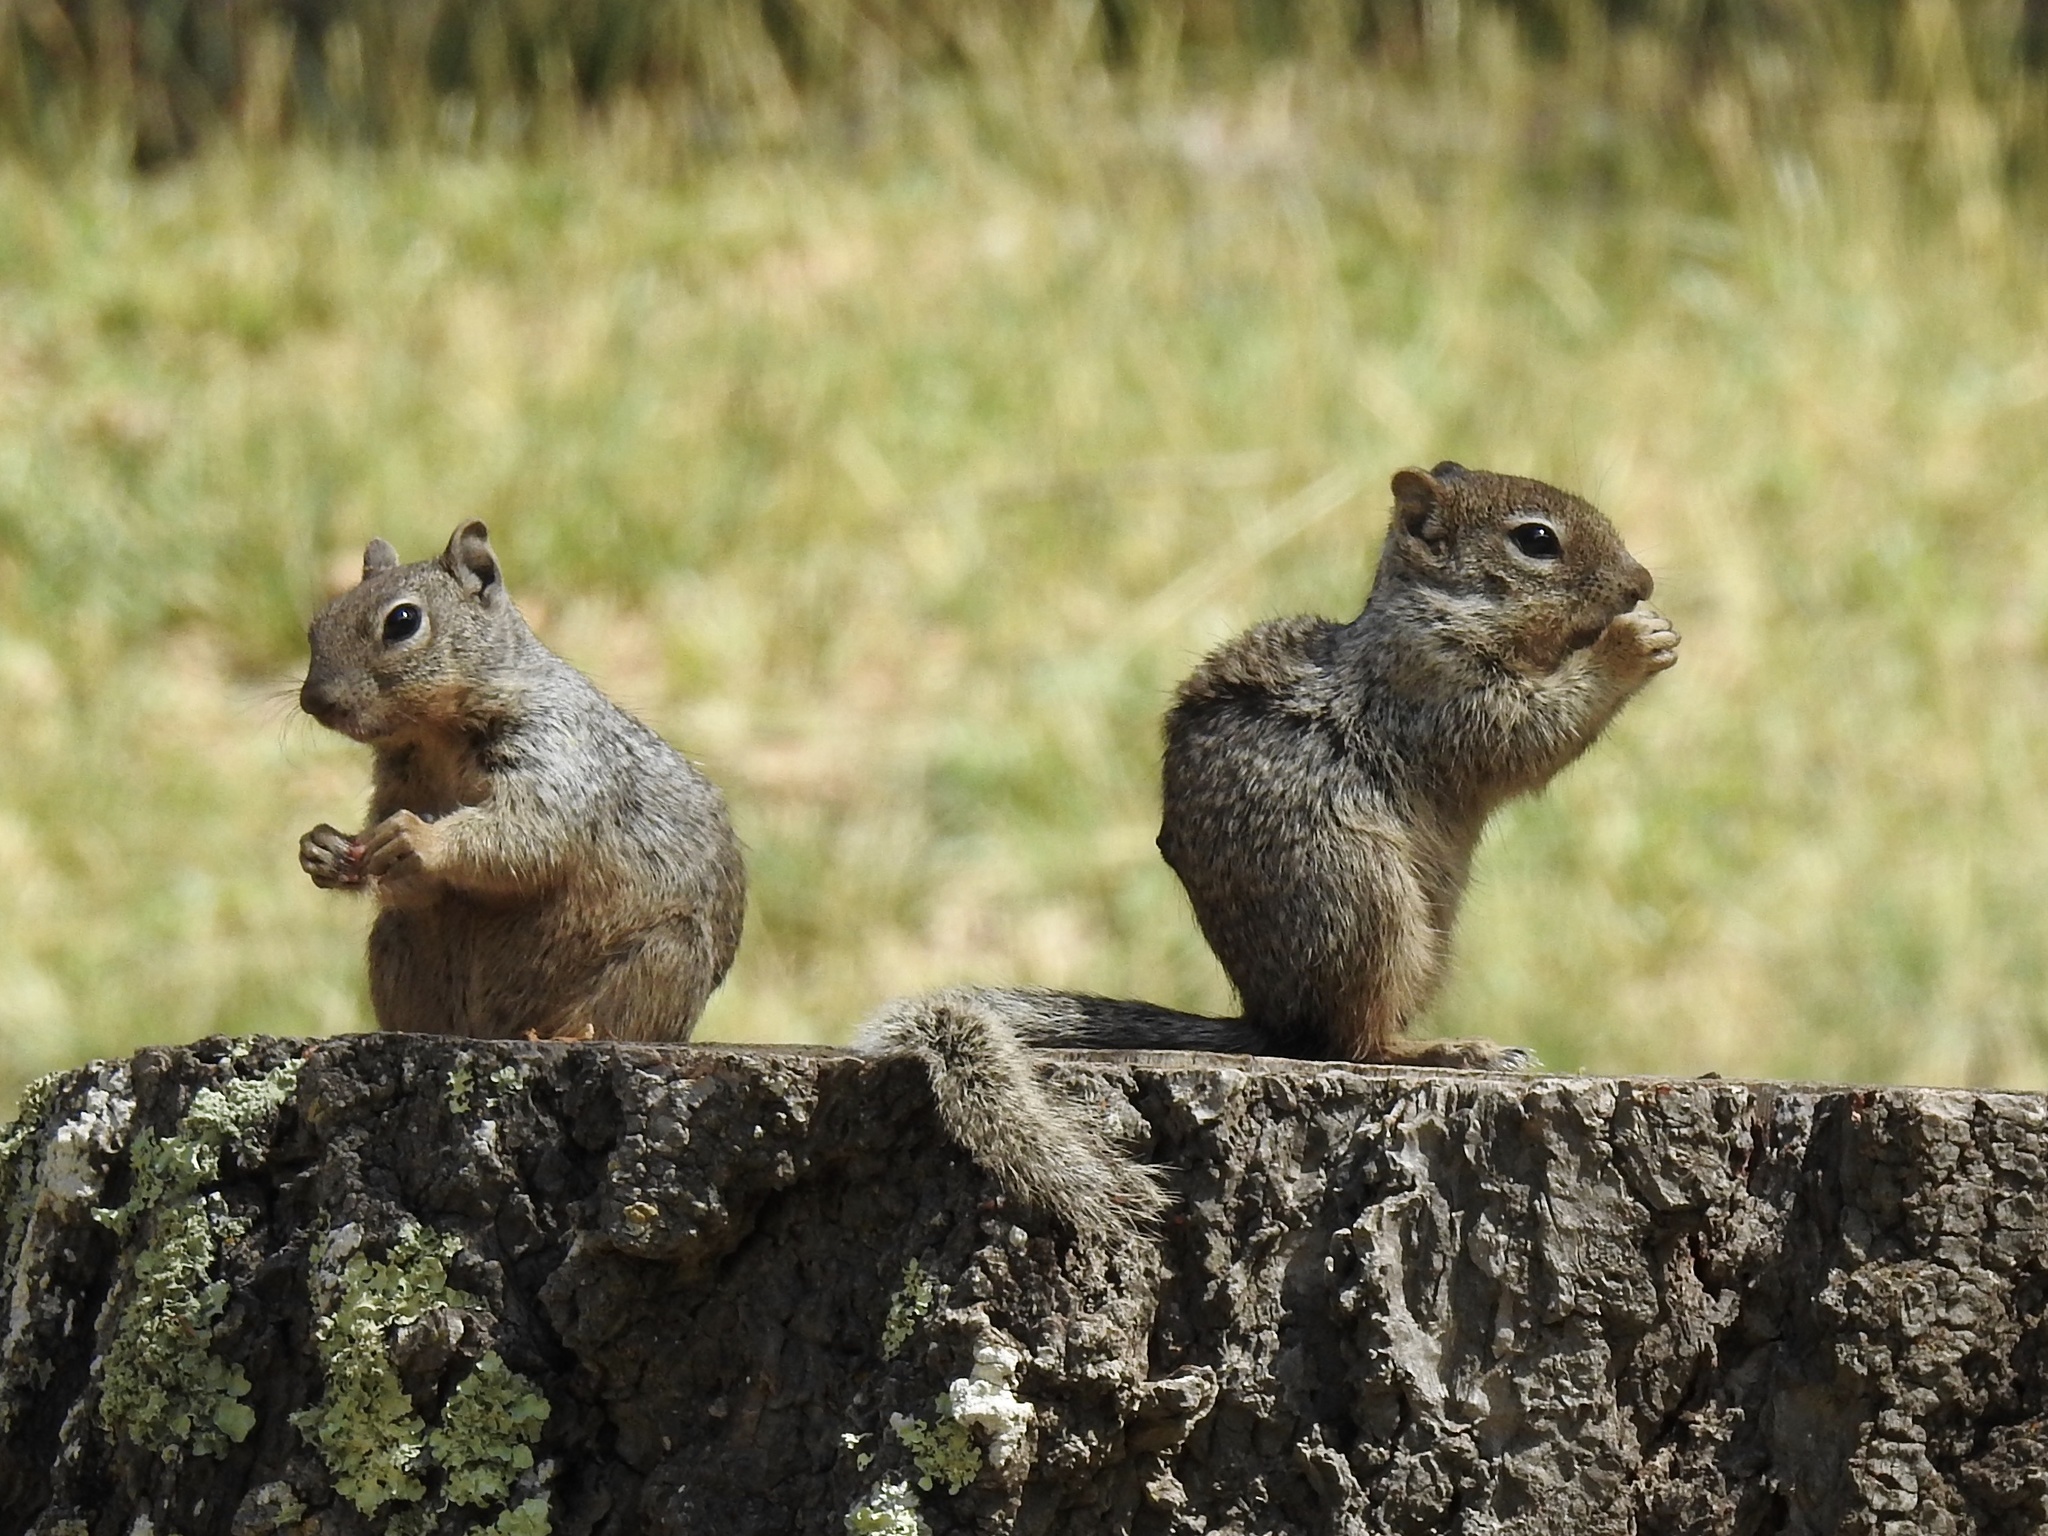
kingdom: Animalia
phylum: Chordata
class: Mammalia
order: Rodentia
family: Sciuridae
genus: Otospermophilus
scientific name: Otospermophilus variegatus
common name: Rock squirrel
